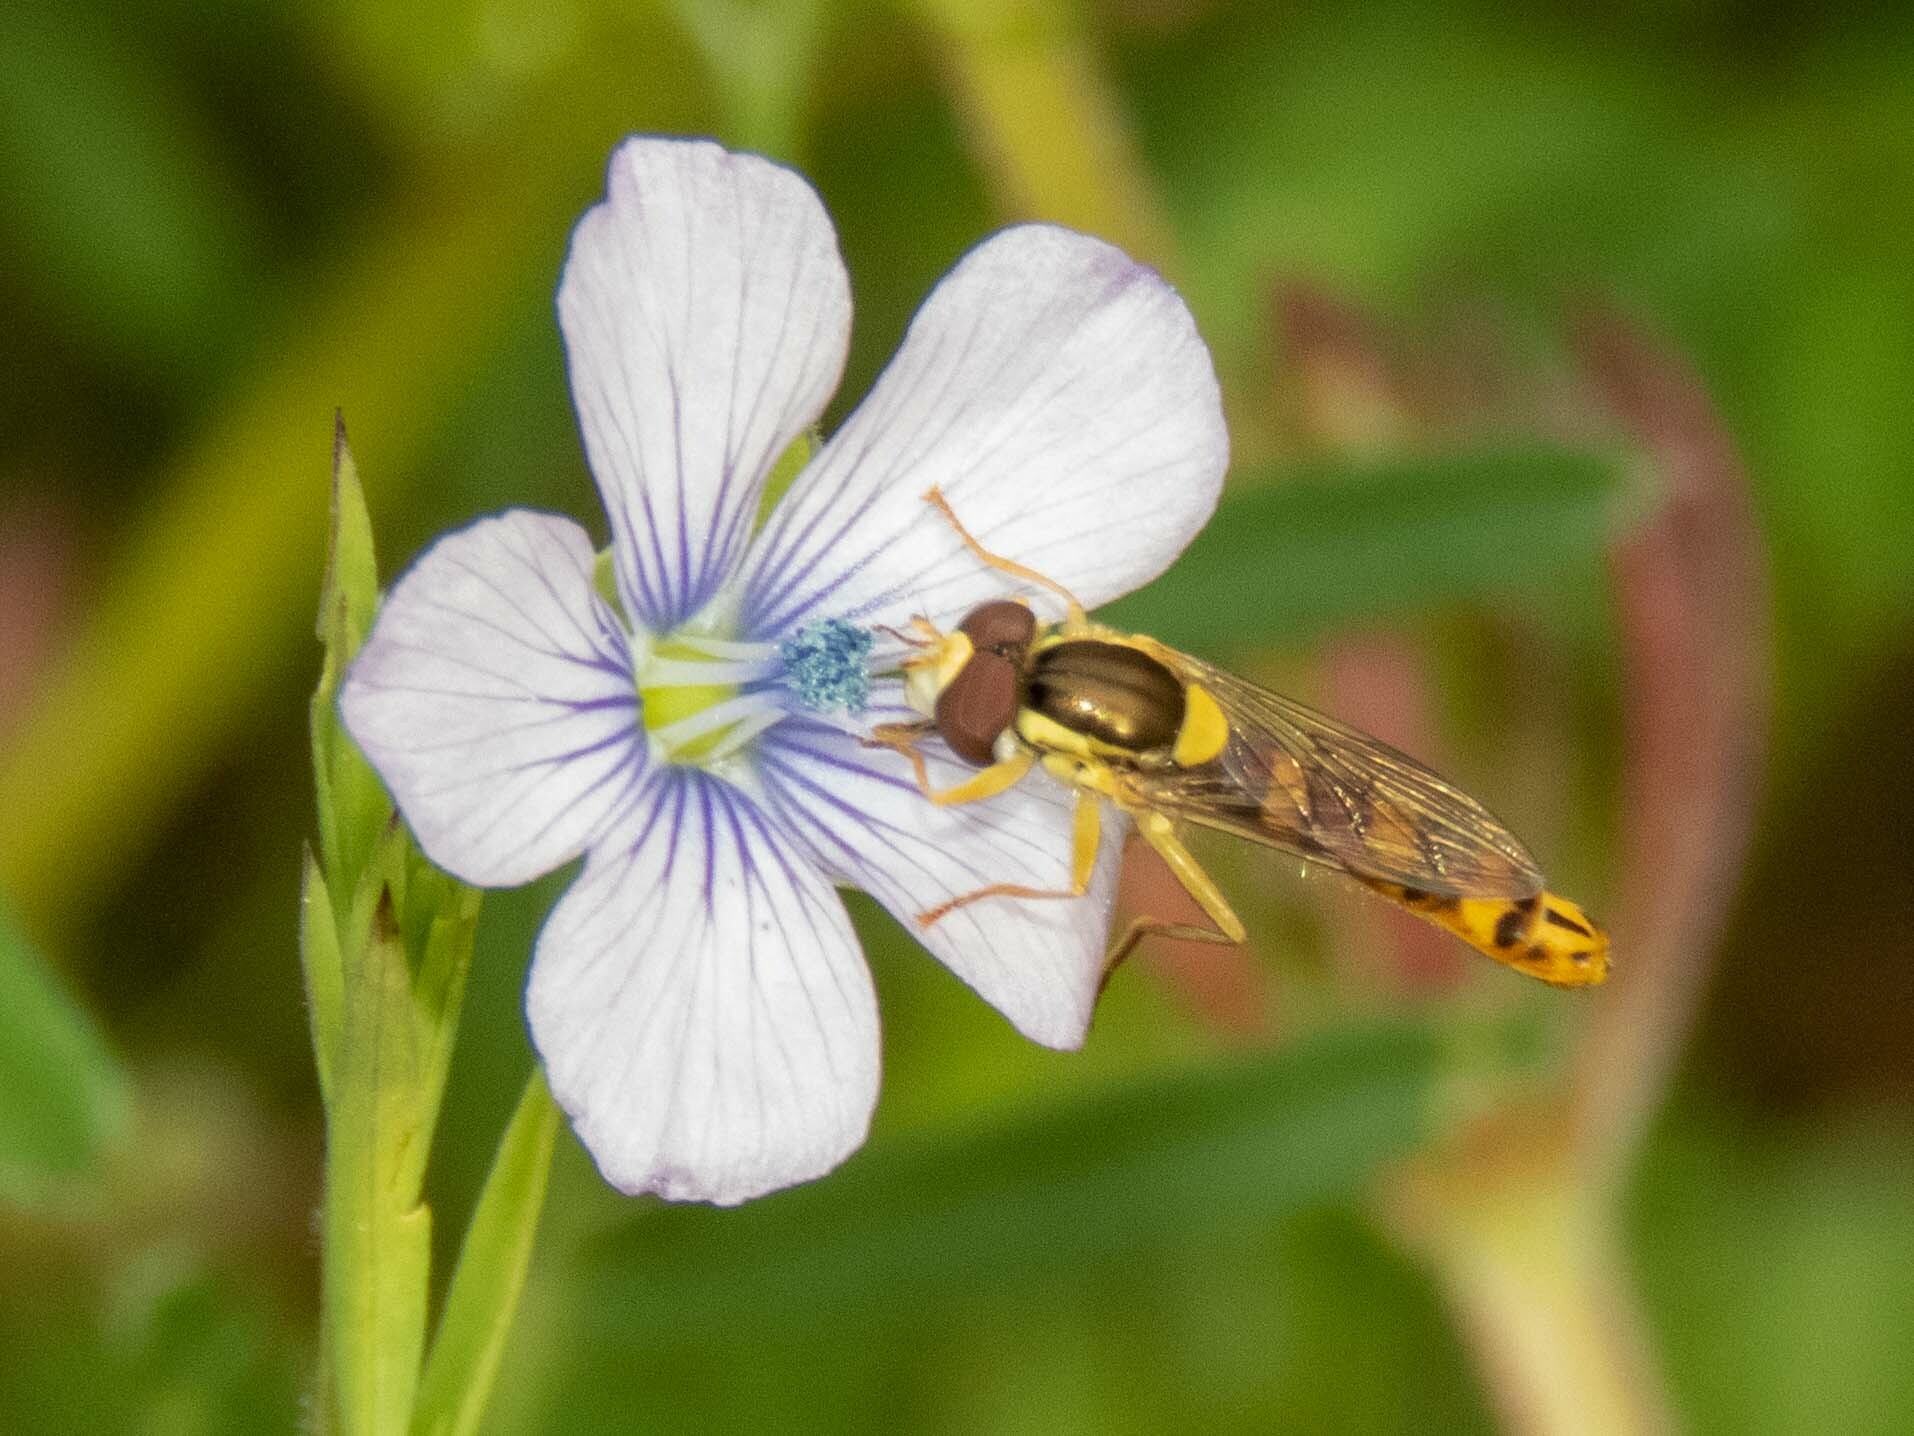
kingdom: Animalia
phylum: Arthropoda
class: Insecta
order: Diptera
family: Syrphidae
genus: Sphaerophoria
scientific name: Sphaerophoria scripta
